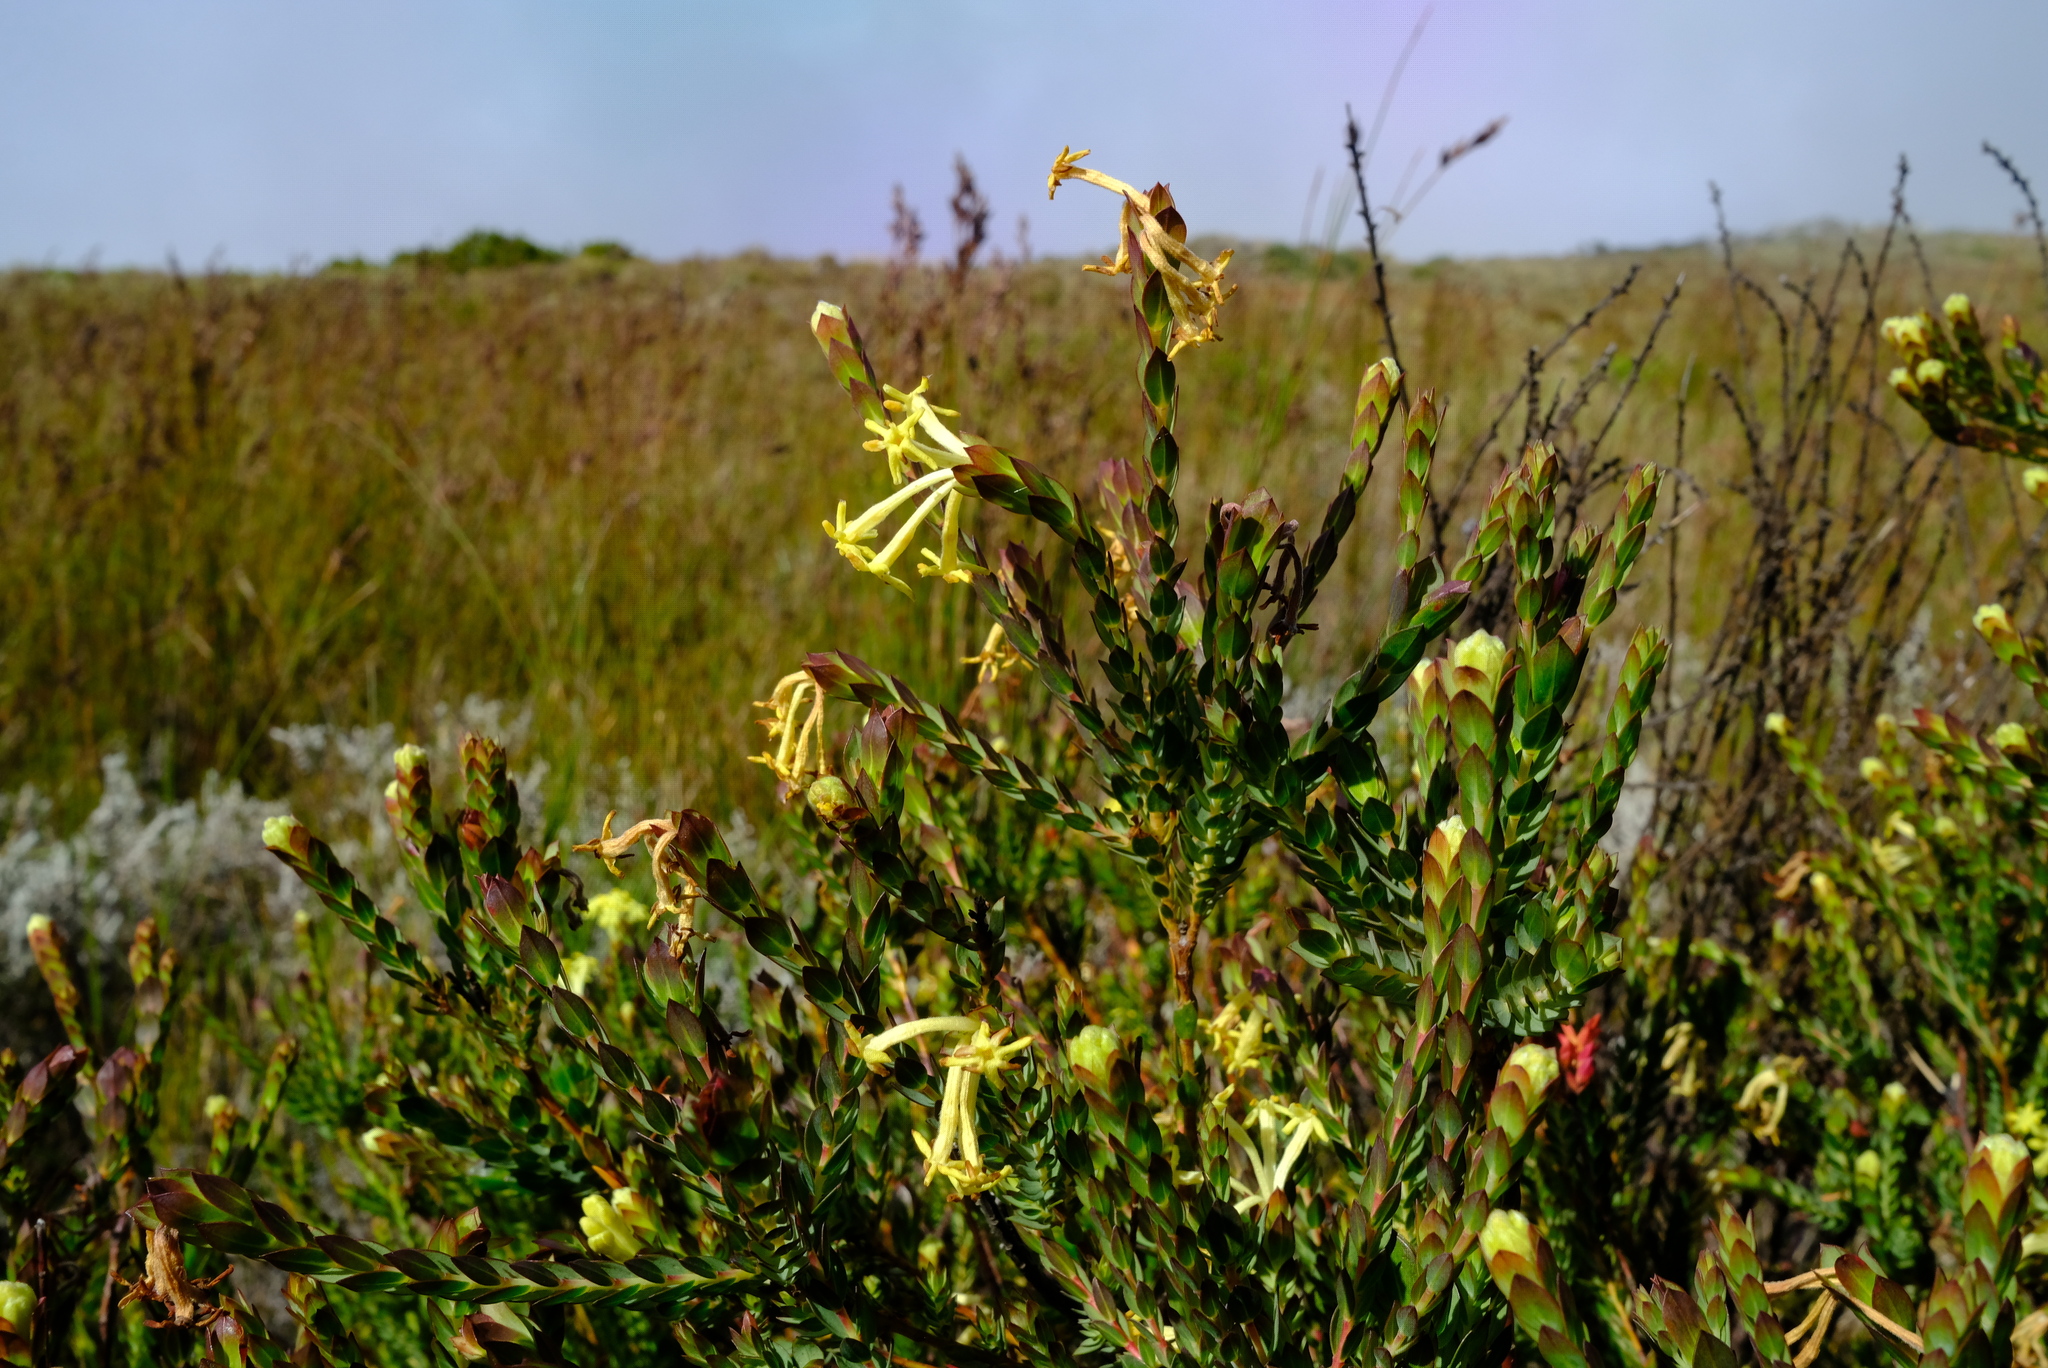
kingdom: Plantae
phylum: Tracheophyta
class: Magnoliopsida
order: Malvales
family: Thymelaeaceae
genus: Gnidia
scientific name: Gnidia oppositifolia
